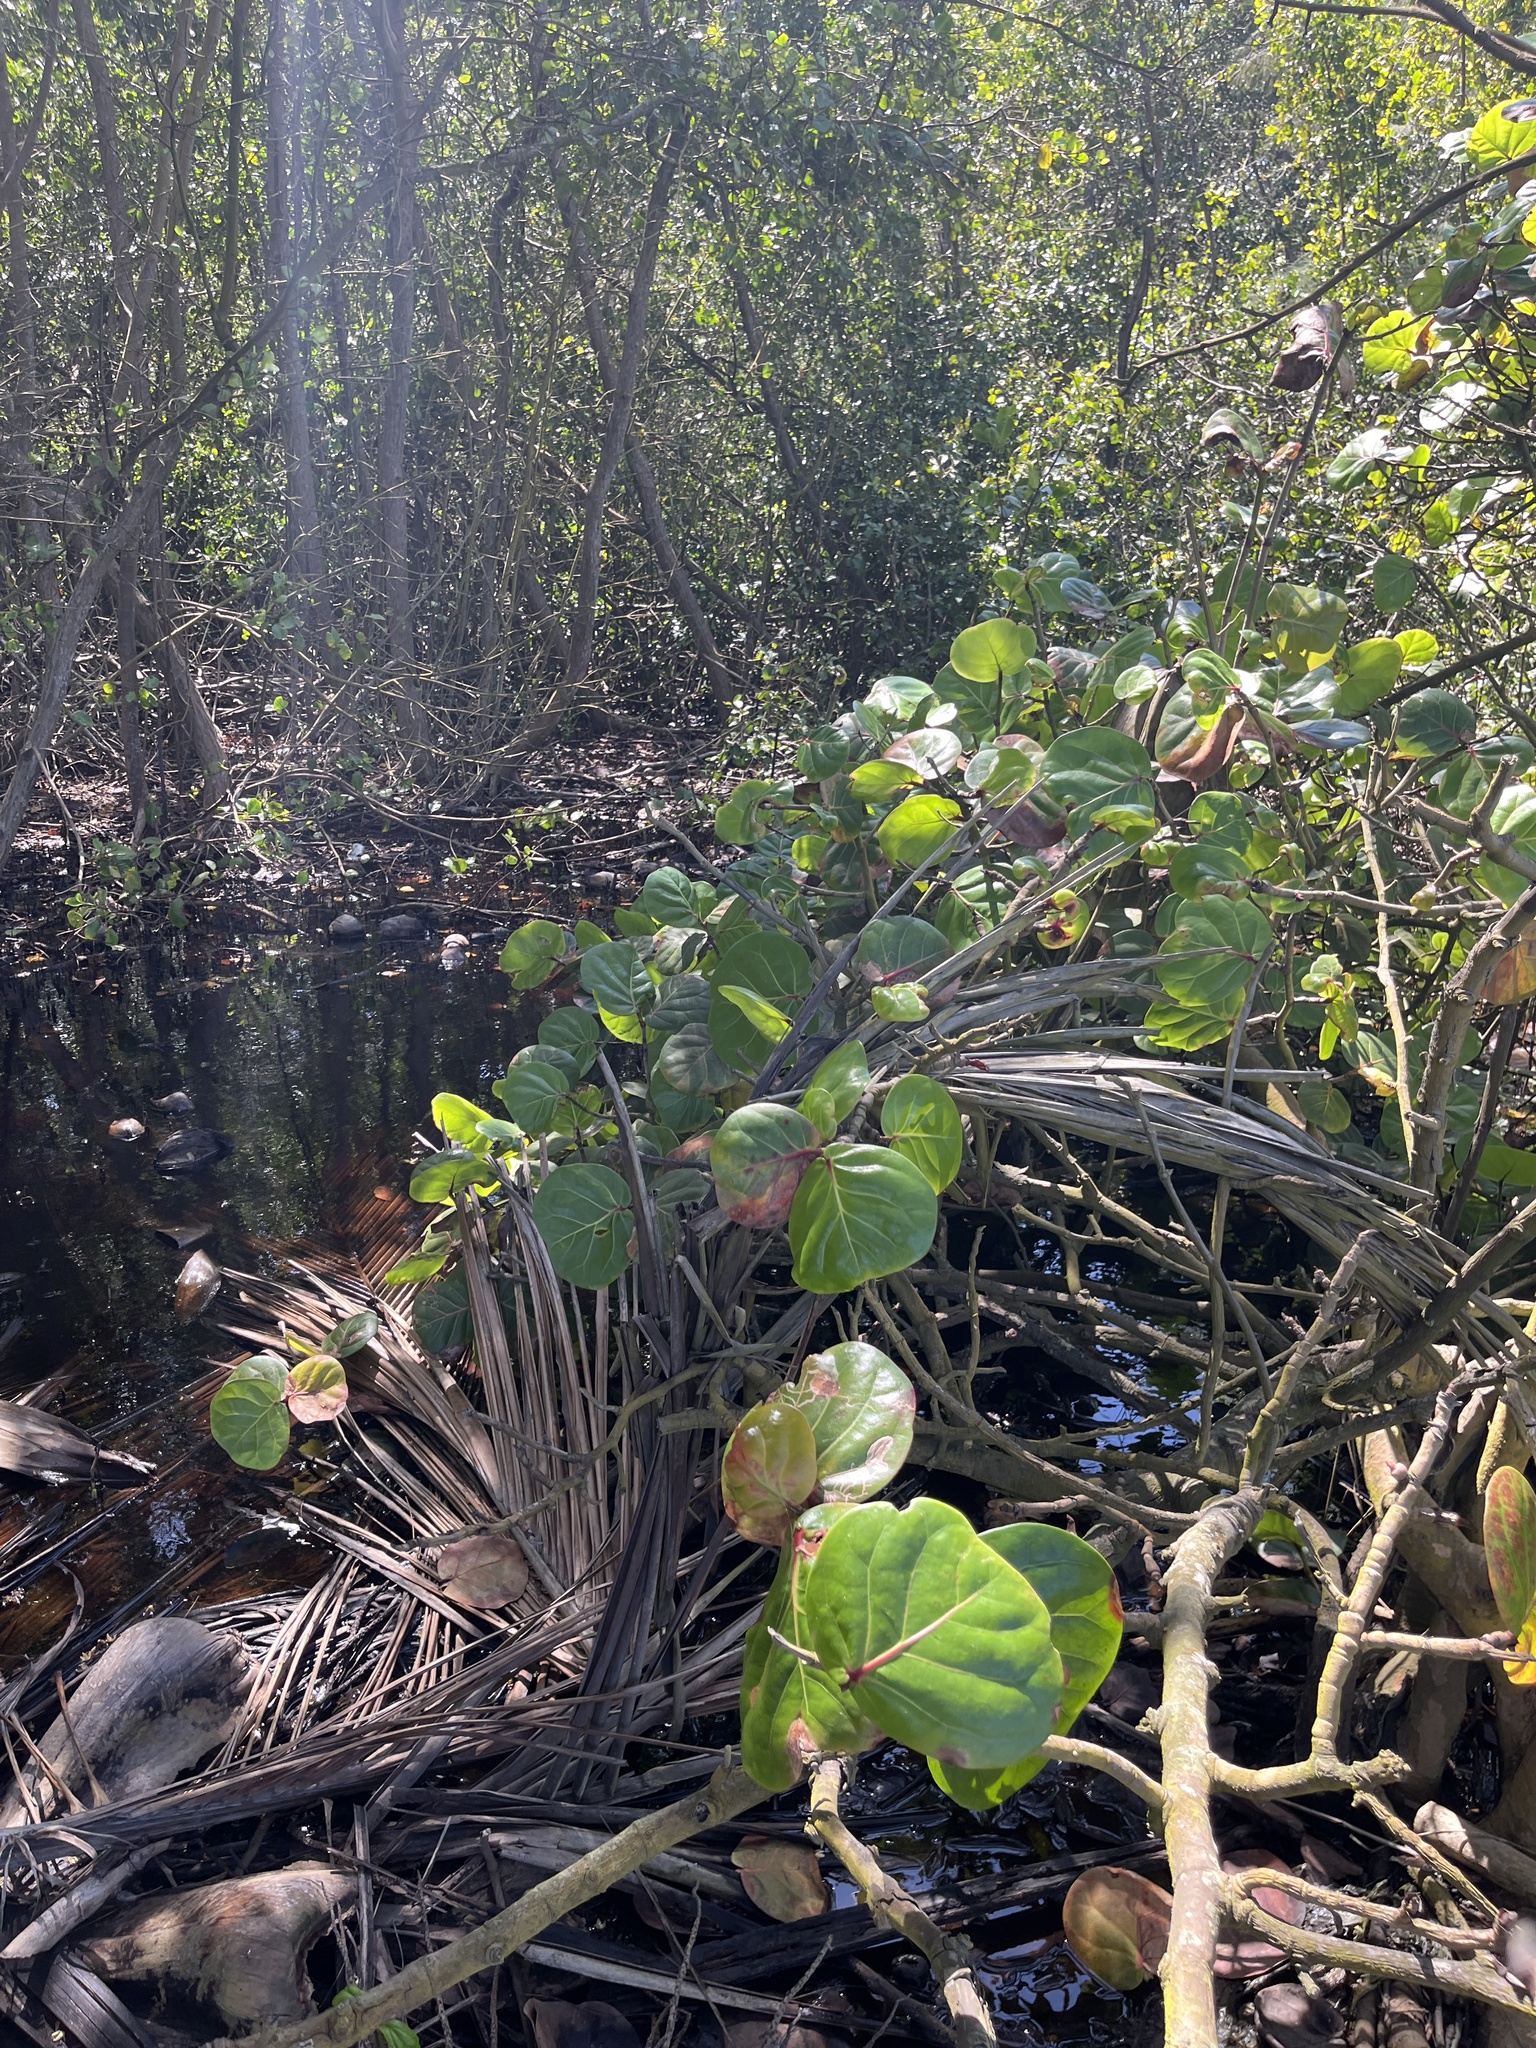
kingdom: Plantae
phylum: Tracheophyta
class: Magnoliopsida
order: Caryophyllales
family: Polygonaceae
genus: Coccoloba
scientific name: Coccoloba uvifera
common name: Seagrape
